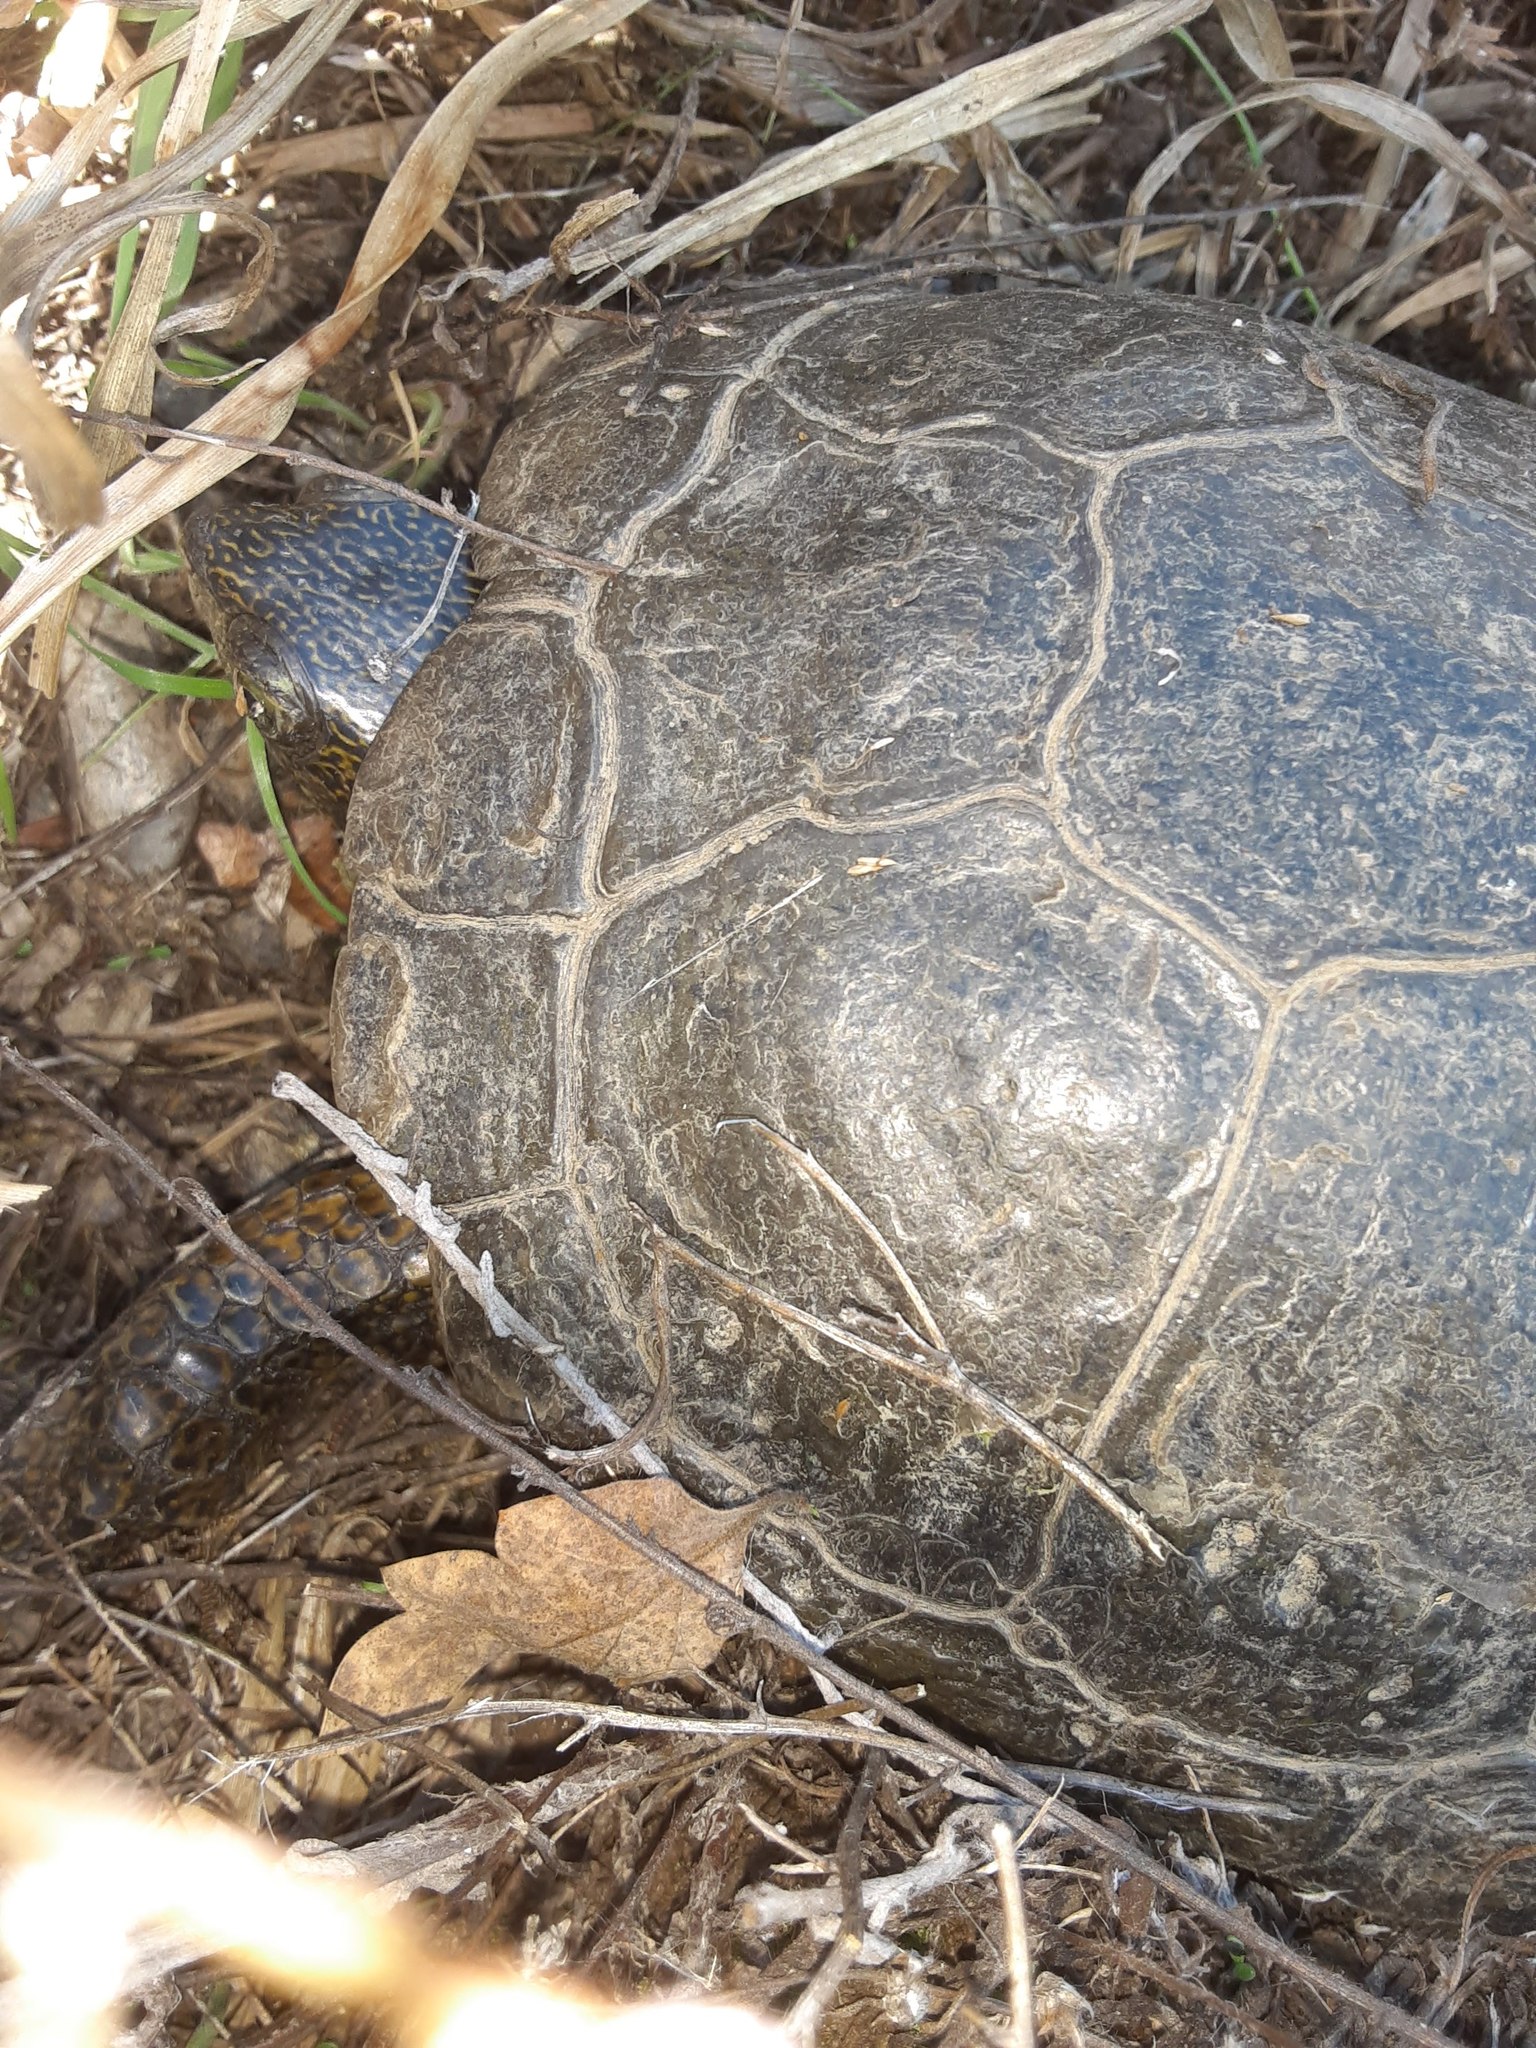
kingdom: Animalia
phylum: Chordata
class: Testudines
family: Emydidae
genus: Actinemys
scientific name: Actinemys marmorata
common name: Western pond turtle
